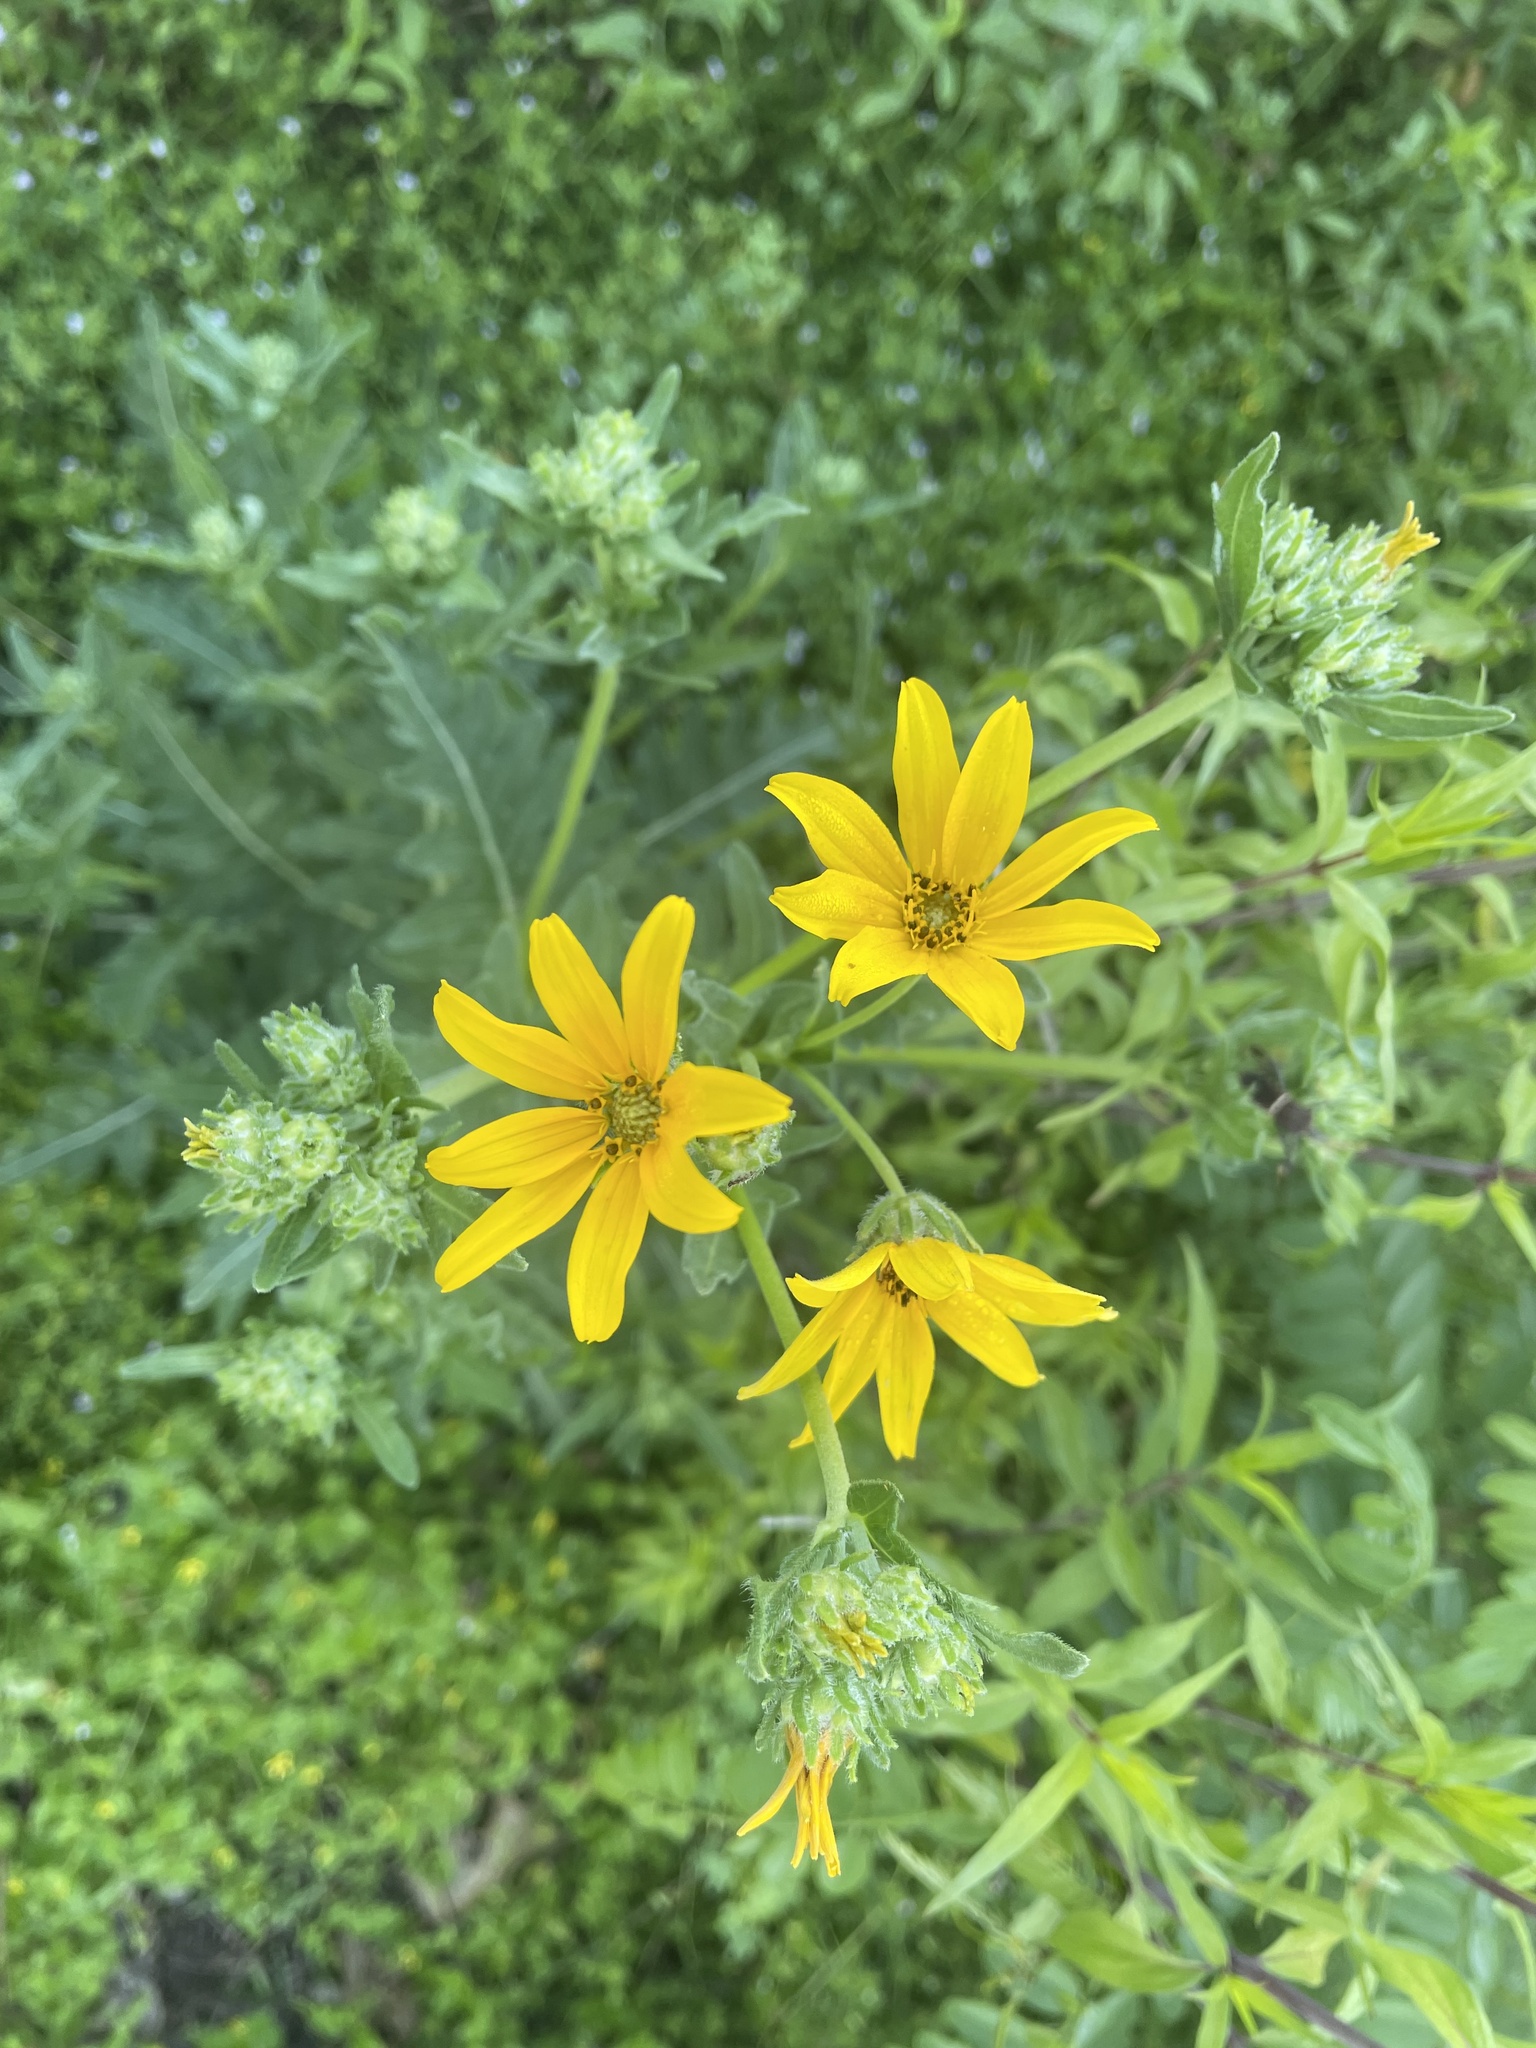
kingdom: Plantae
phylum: Tracheophyta
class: Magnoliopsida
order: Asterales
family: Asteraceae
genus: Engelmannia
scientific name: Engelmannia peristenia
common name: Engelmann's daisy
